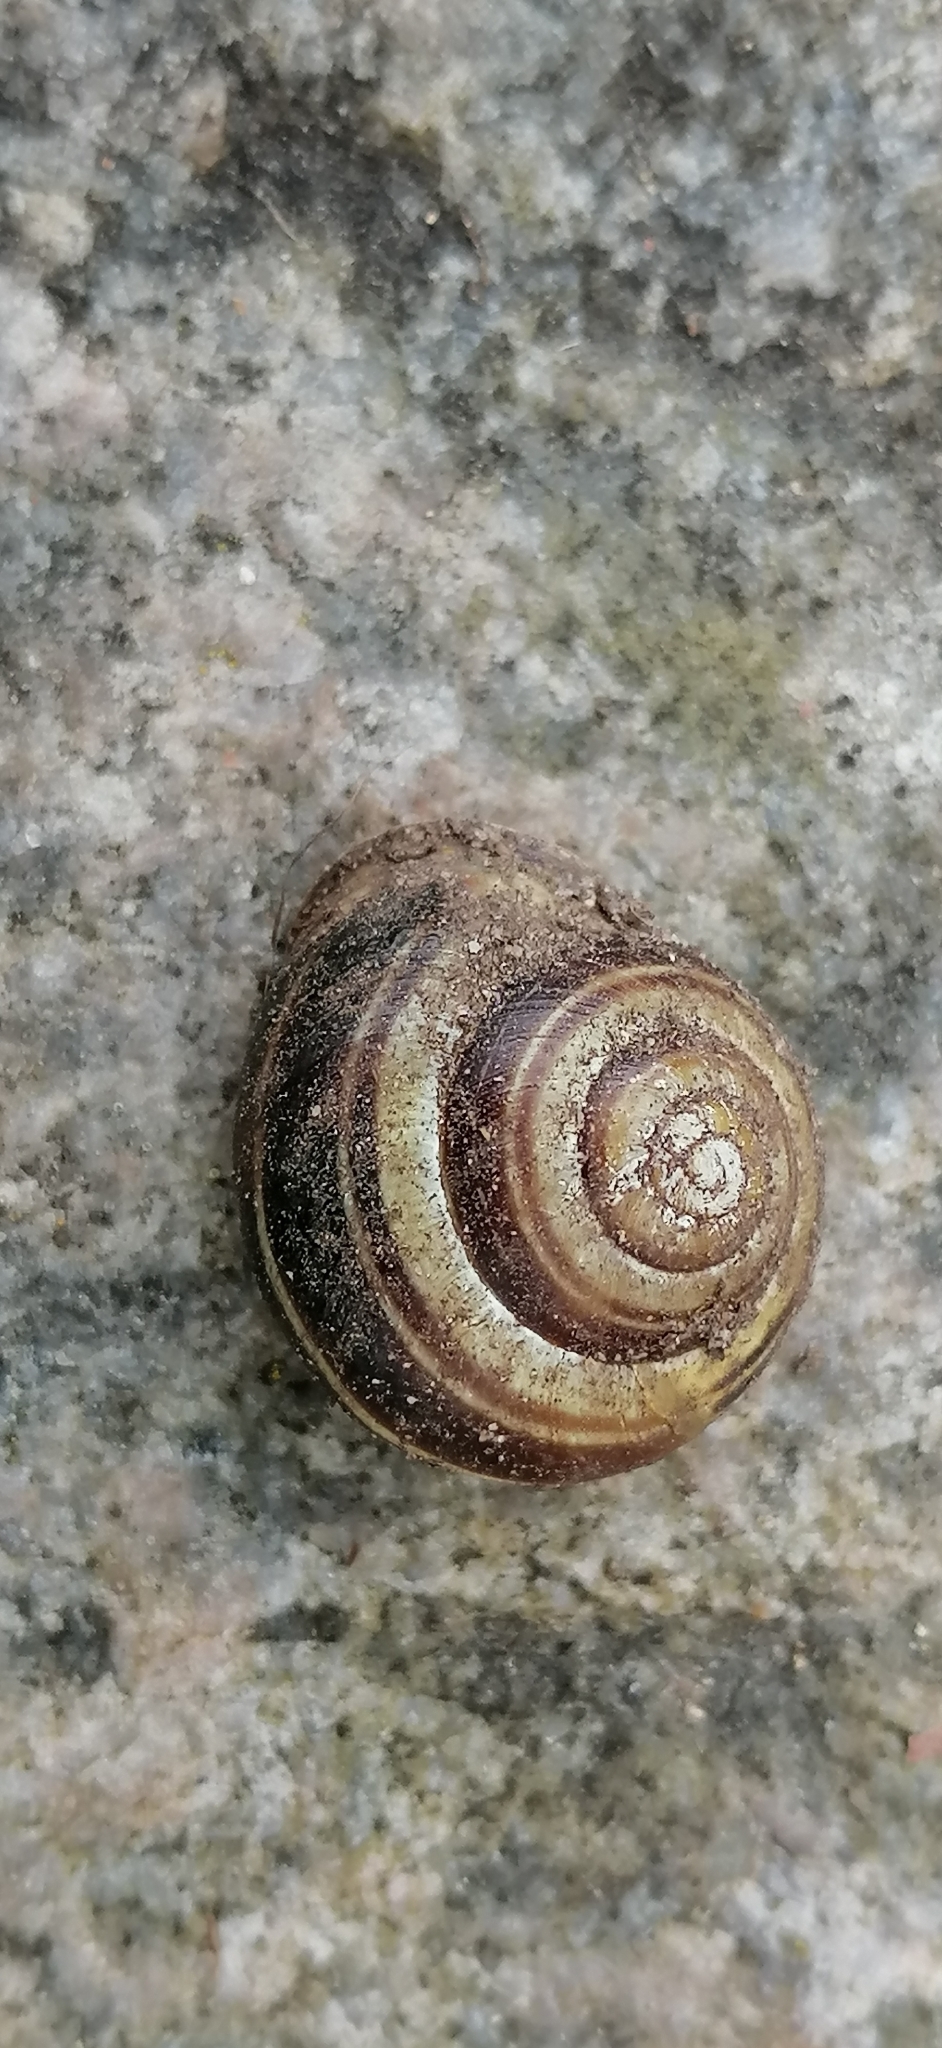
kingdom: Animalia
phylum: Mollusca
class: Gastropoda
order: Stylommatophora
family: Helicidae
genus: Cepaea
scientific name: Cepaea nemoralis
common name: Grovesnail
